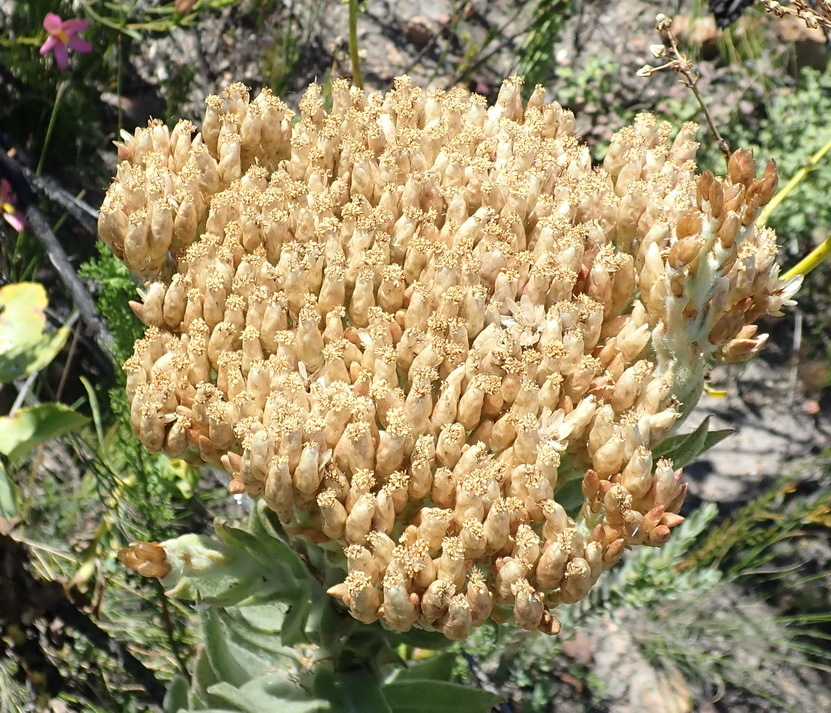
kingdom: Plantae
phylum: Tracheophyta
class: Magnoliopsida
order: Asterales
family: Asteraceae
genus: Syncarpha
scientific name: Syncarpha milleflora
